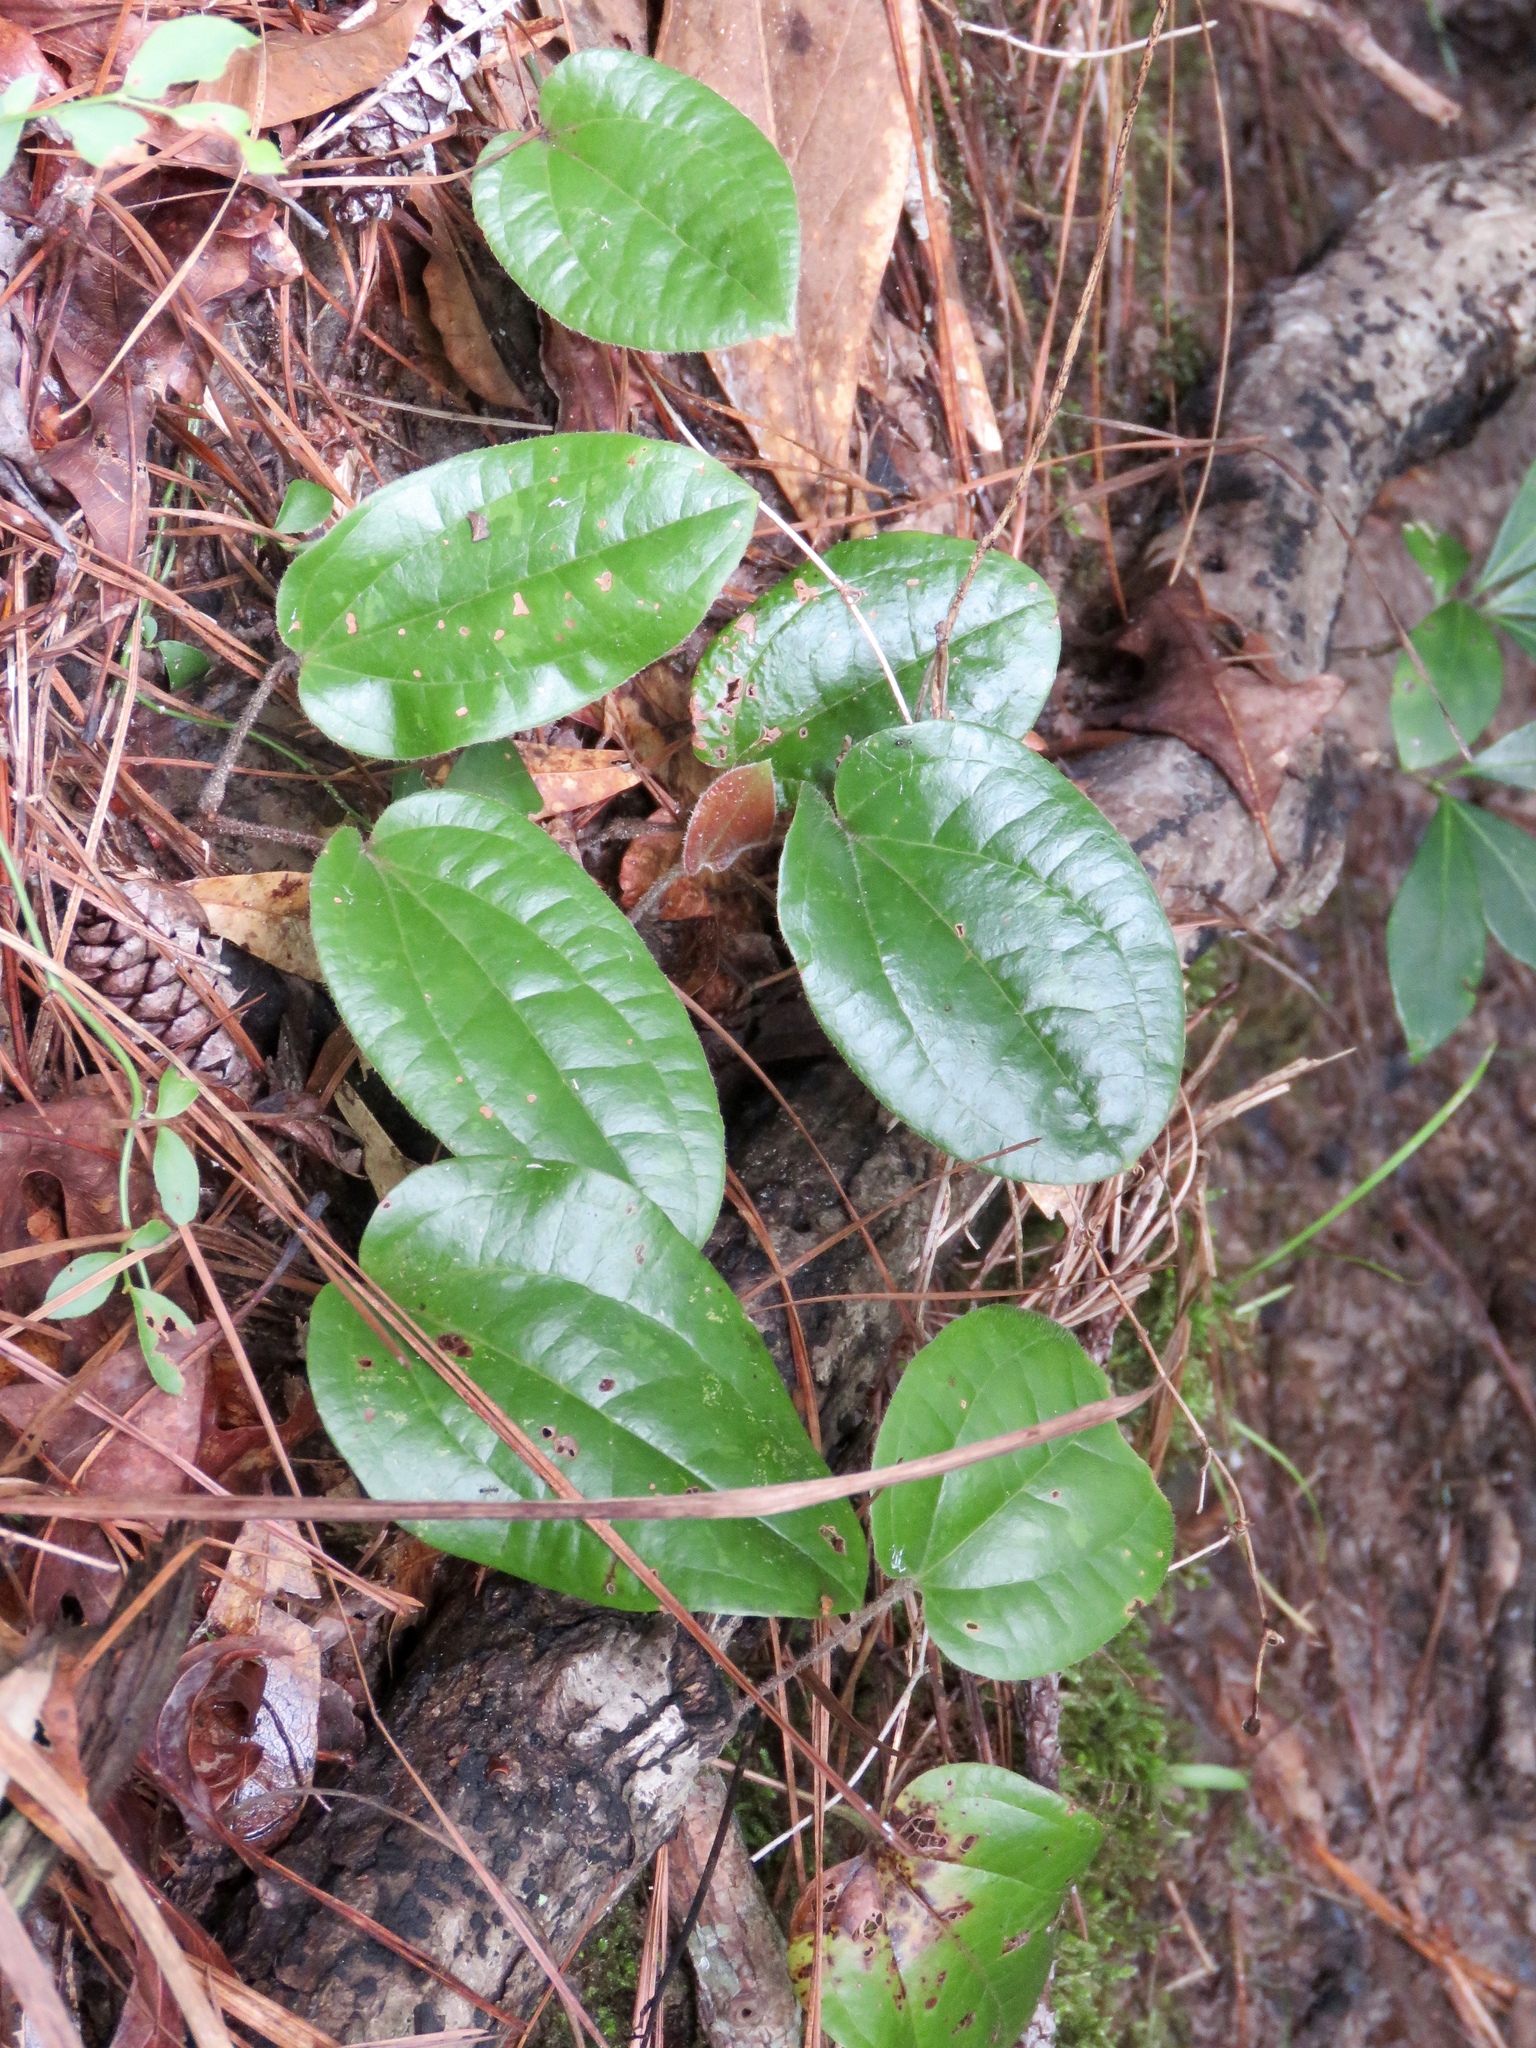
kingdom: Plantae
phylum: Tracheophyta
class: Liliopsida
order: Liliales
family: Smilacaceae
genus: Smilax
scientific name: Smilax pumila
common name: Sarsaparilla-vine
